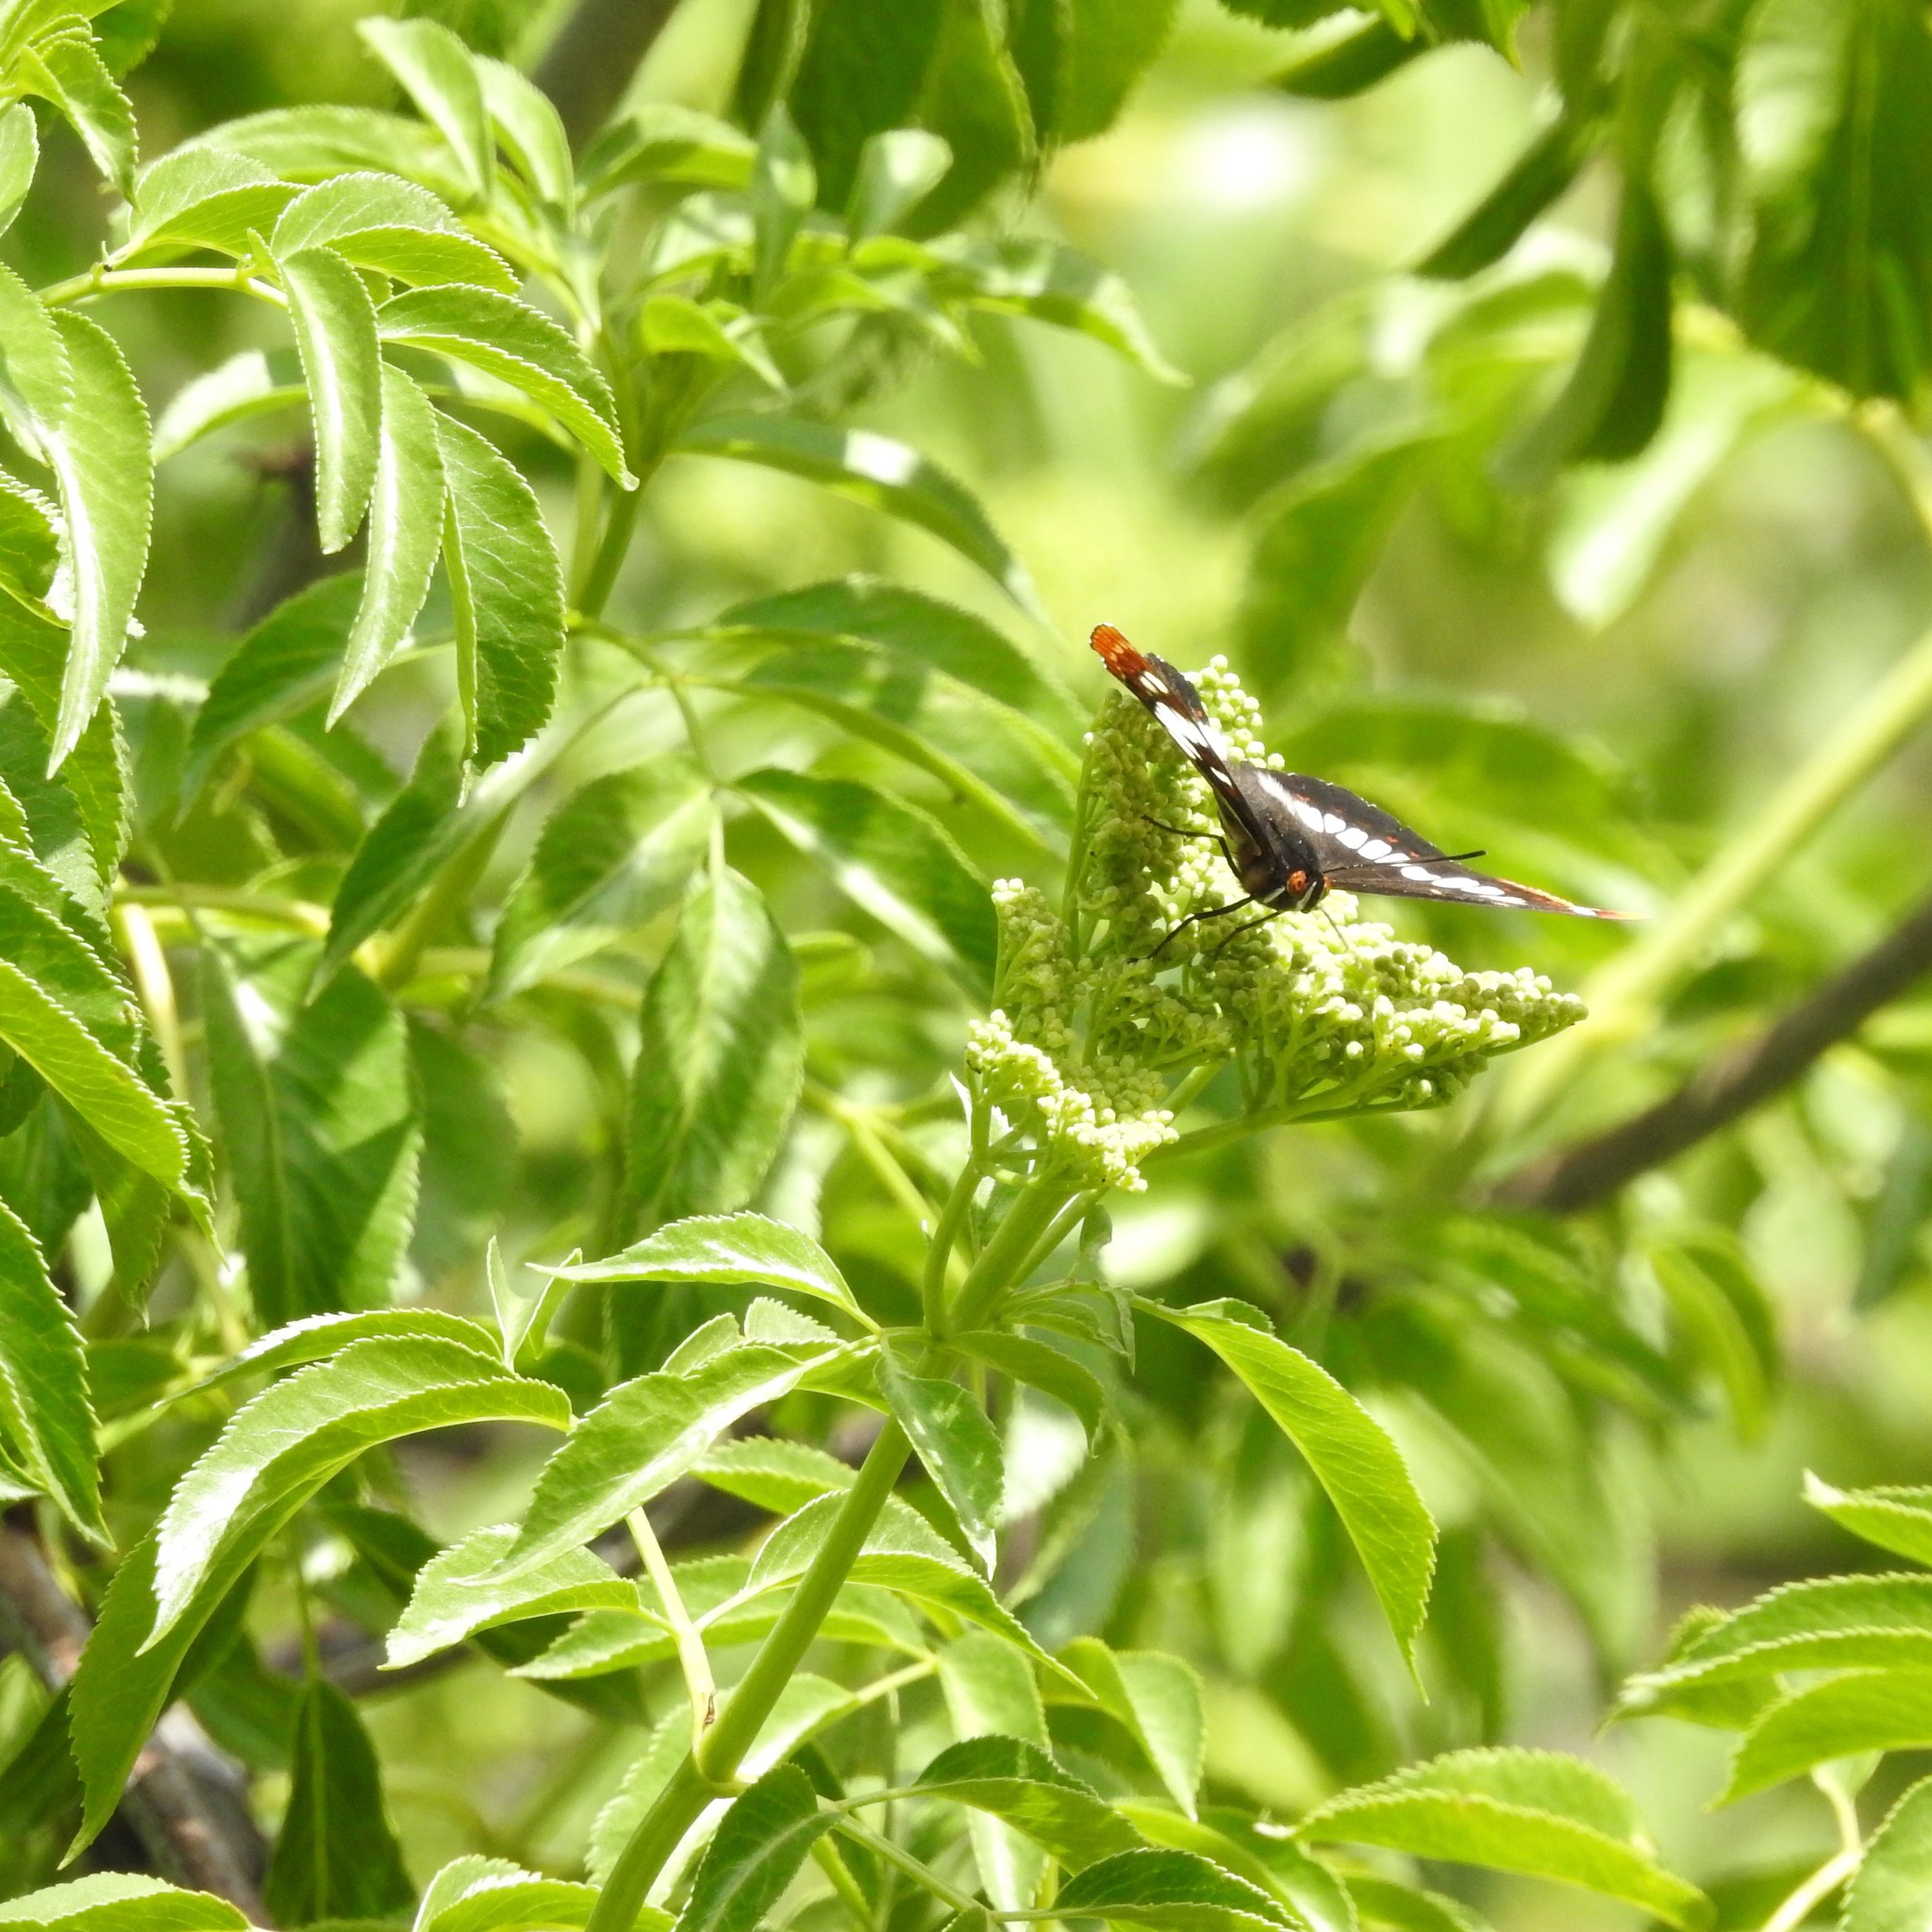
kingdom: Animalia
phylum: Arthropoda
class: Insecta
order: Lepidoptera
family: Nymphalidae
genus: Limenitis
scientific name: Limenitis lorquini
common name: Lorquin's admiral
